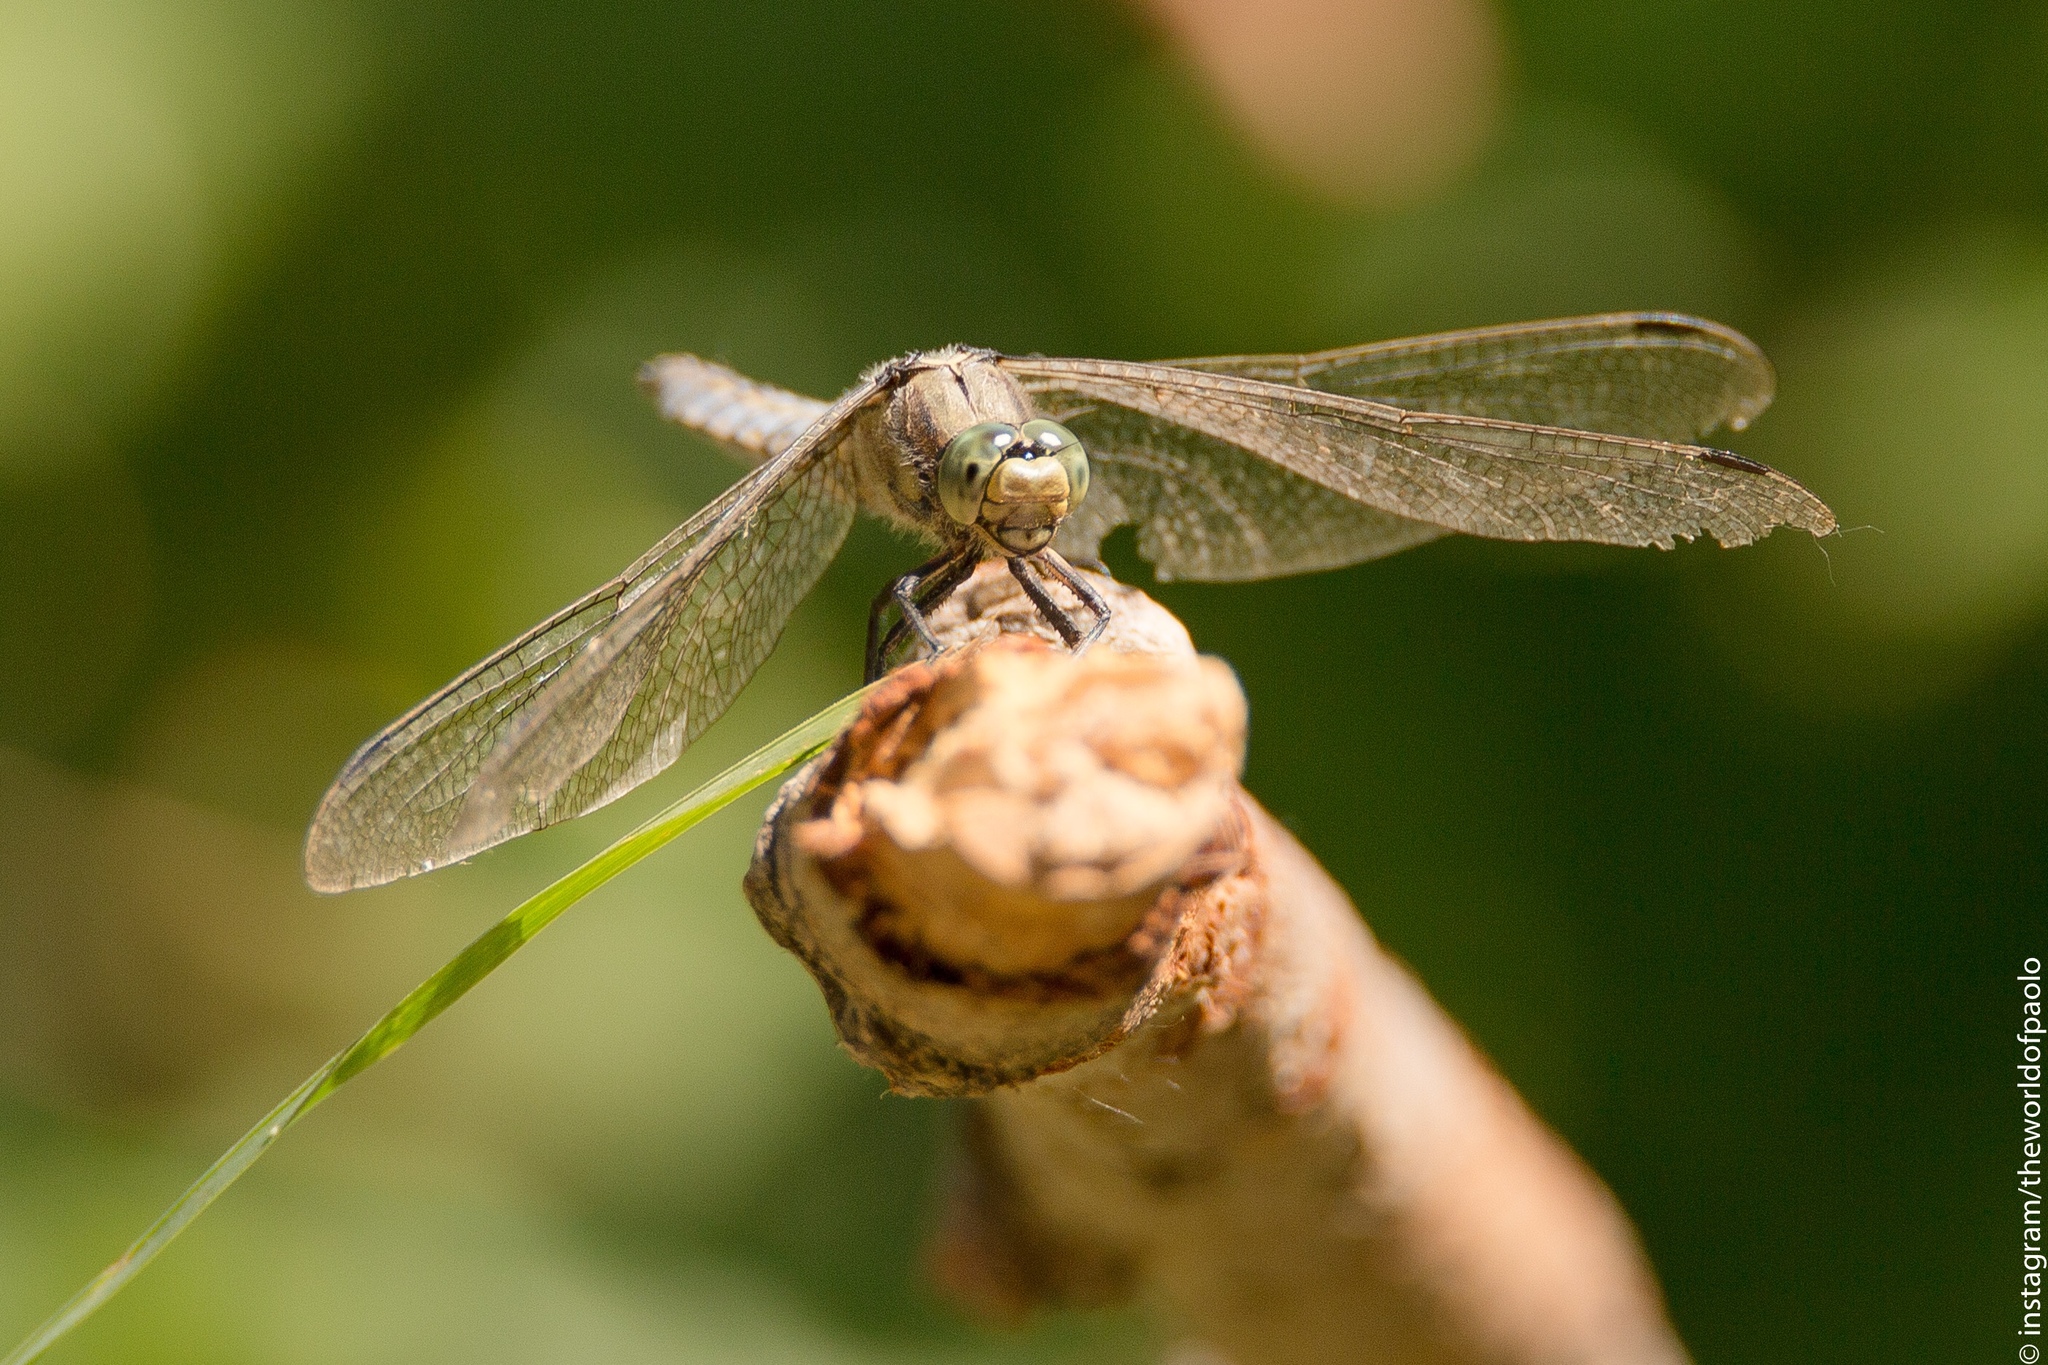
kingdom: Animalia
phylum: Arthropoda
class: Insecta
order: Odonata
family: Libellulidae
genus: Orthetrum
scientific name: Orthetrum cancellatum
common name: Black-tailed skimmer
